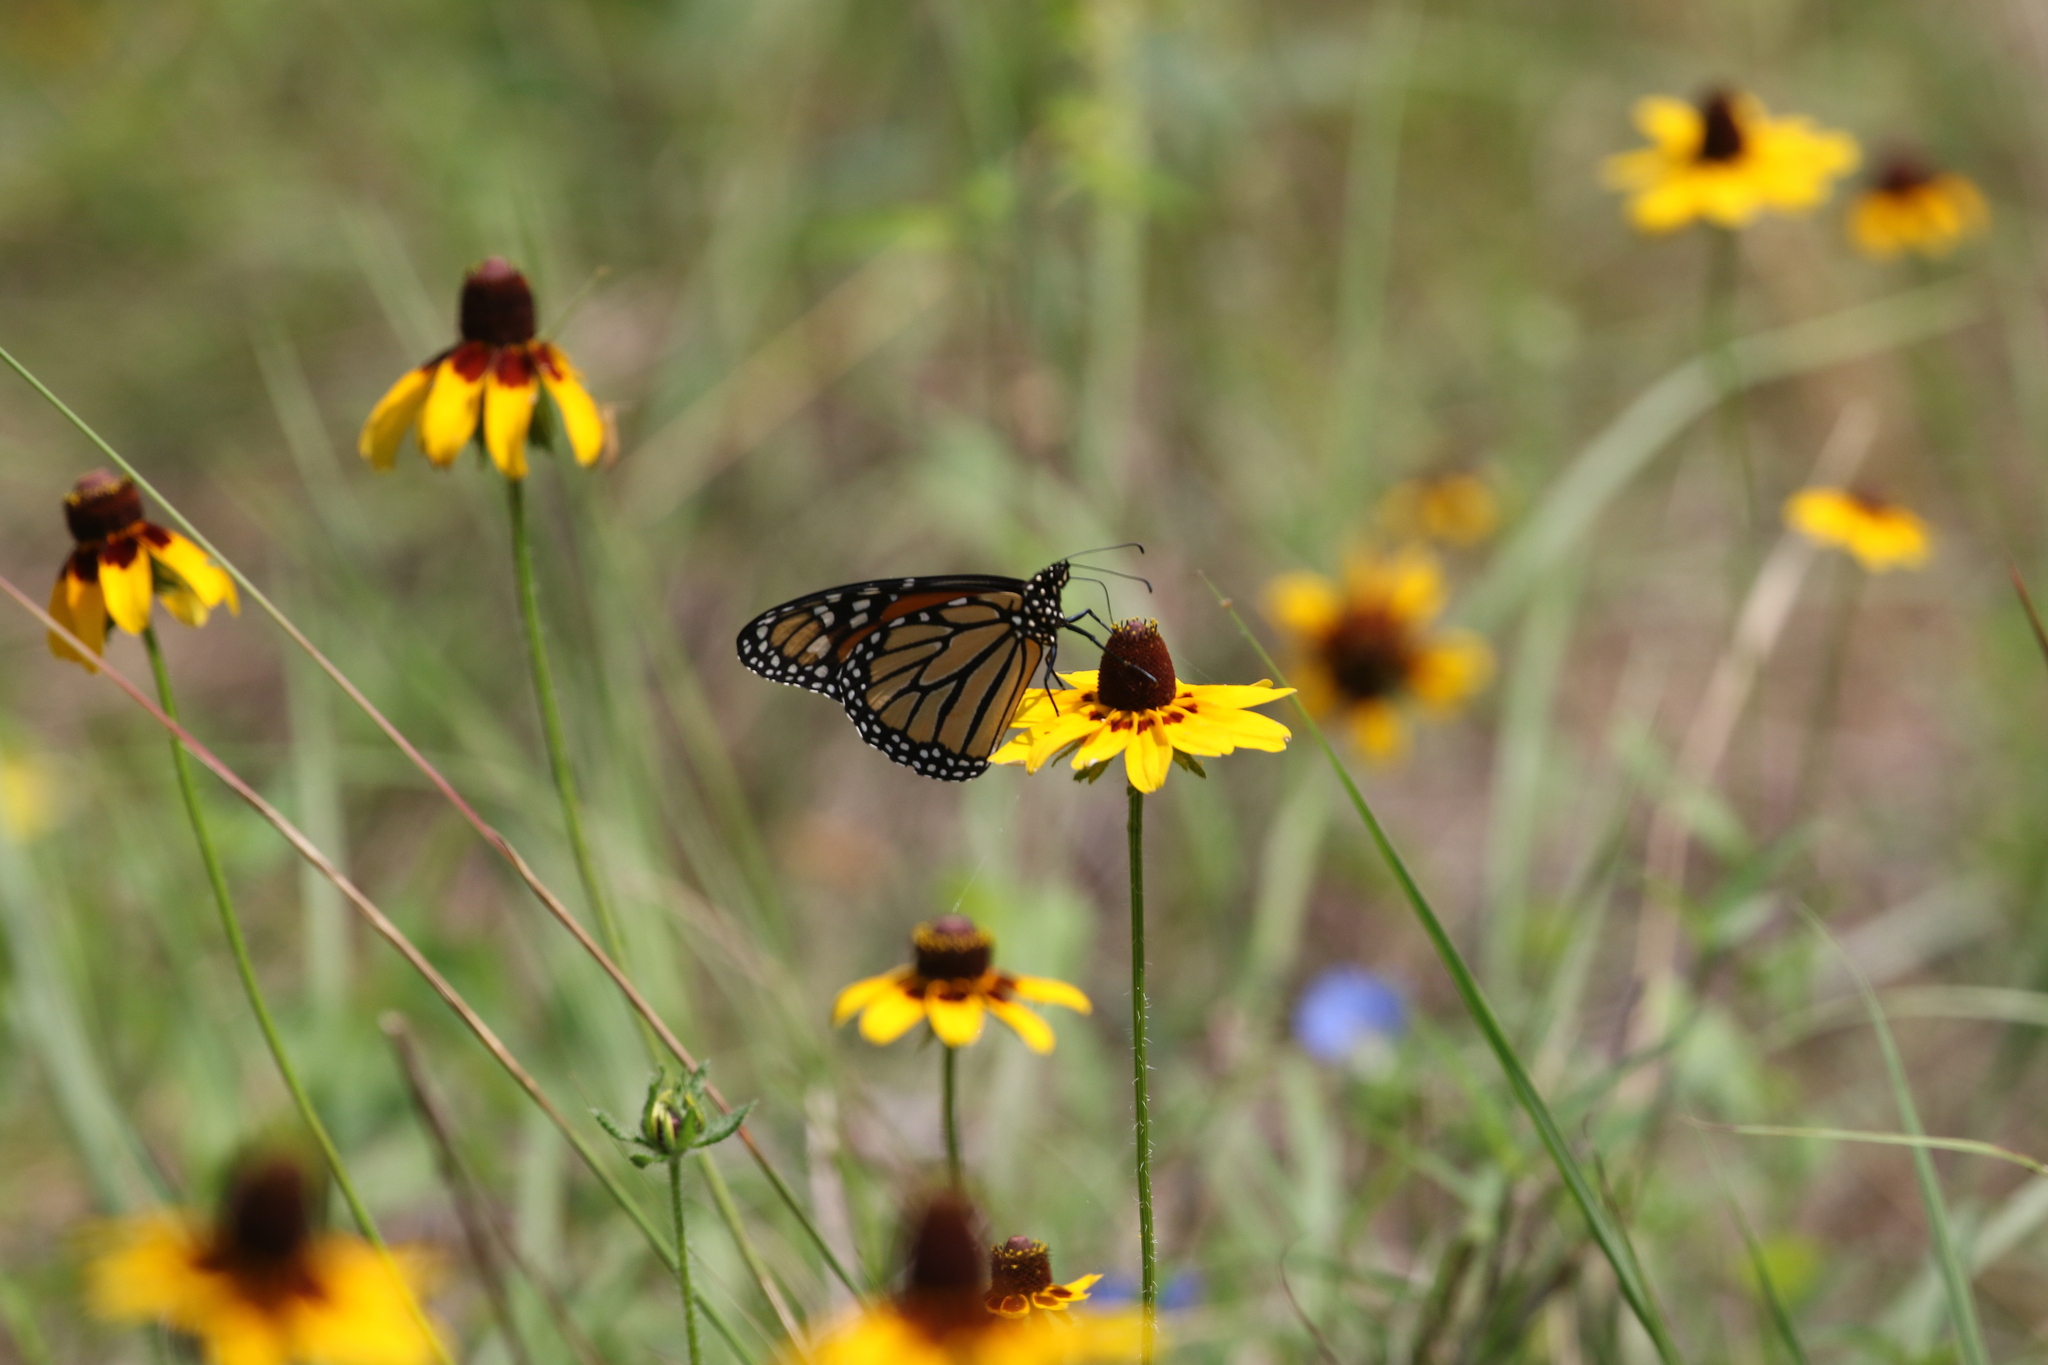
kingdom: Animalia
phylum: Arthropoda
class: Insecta
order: Lepidoptera
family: Nymphalidae
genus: Danaus
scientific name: Danaus plexippus
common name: Monarch
